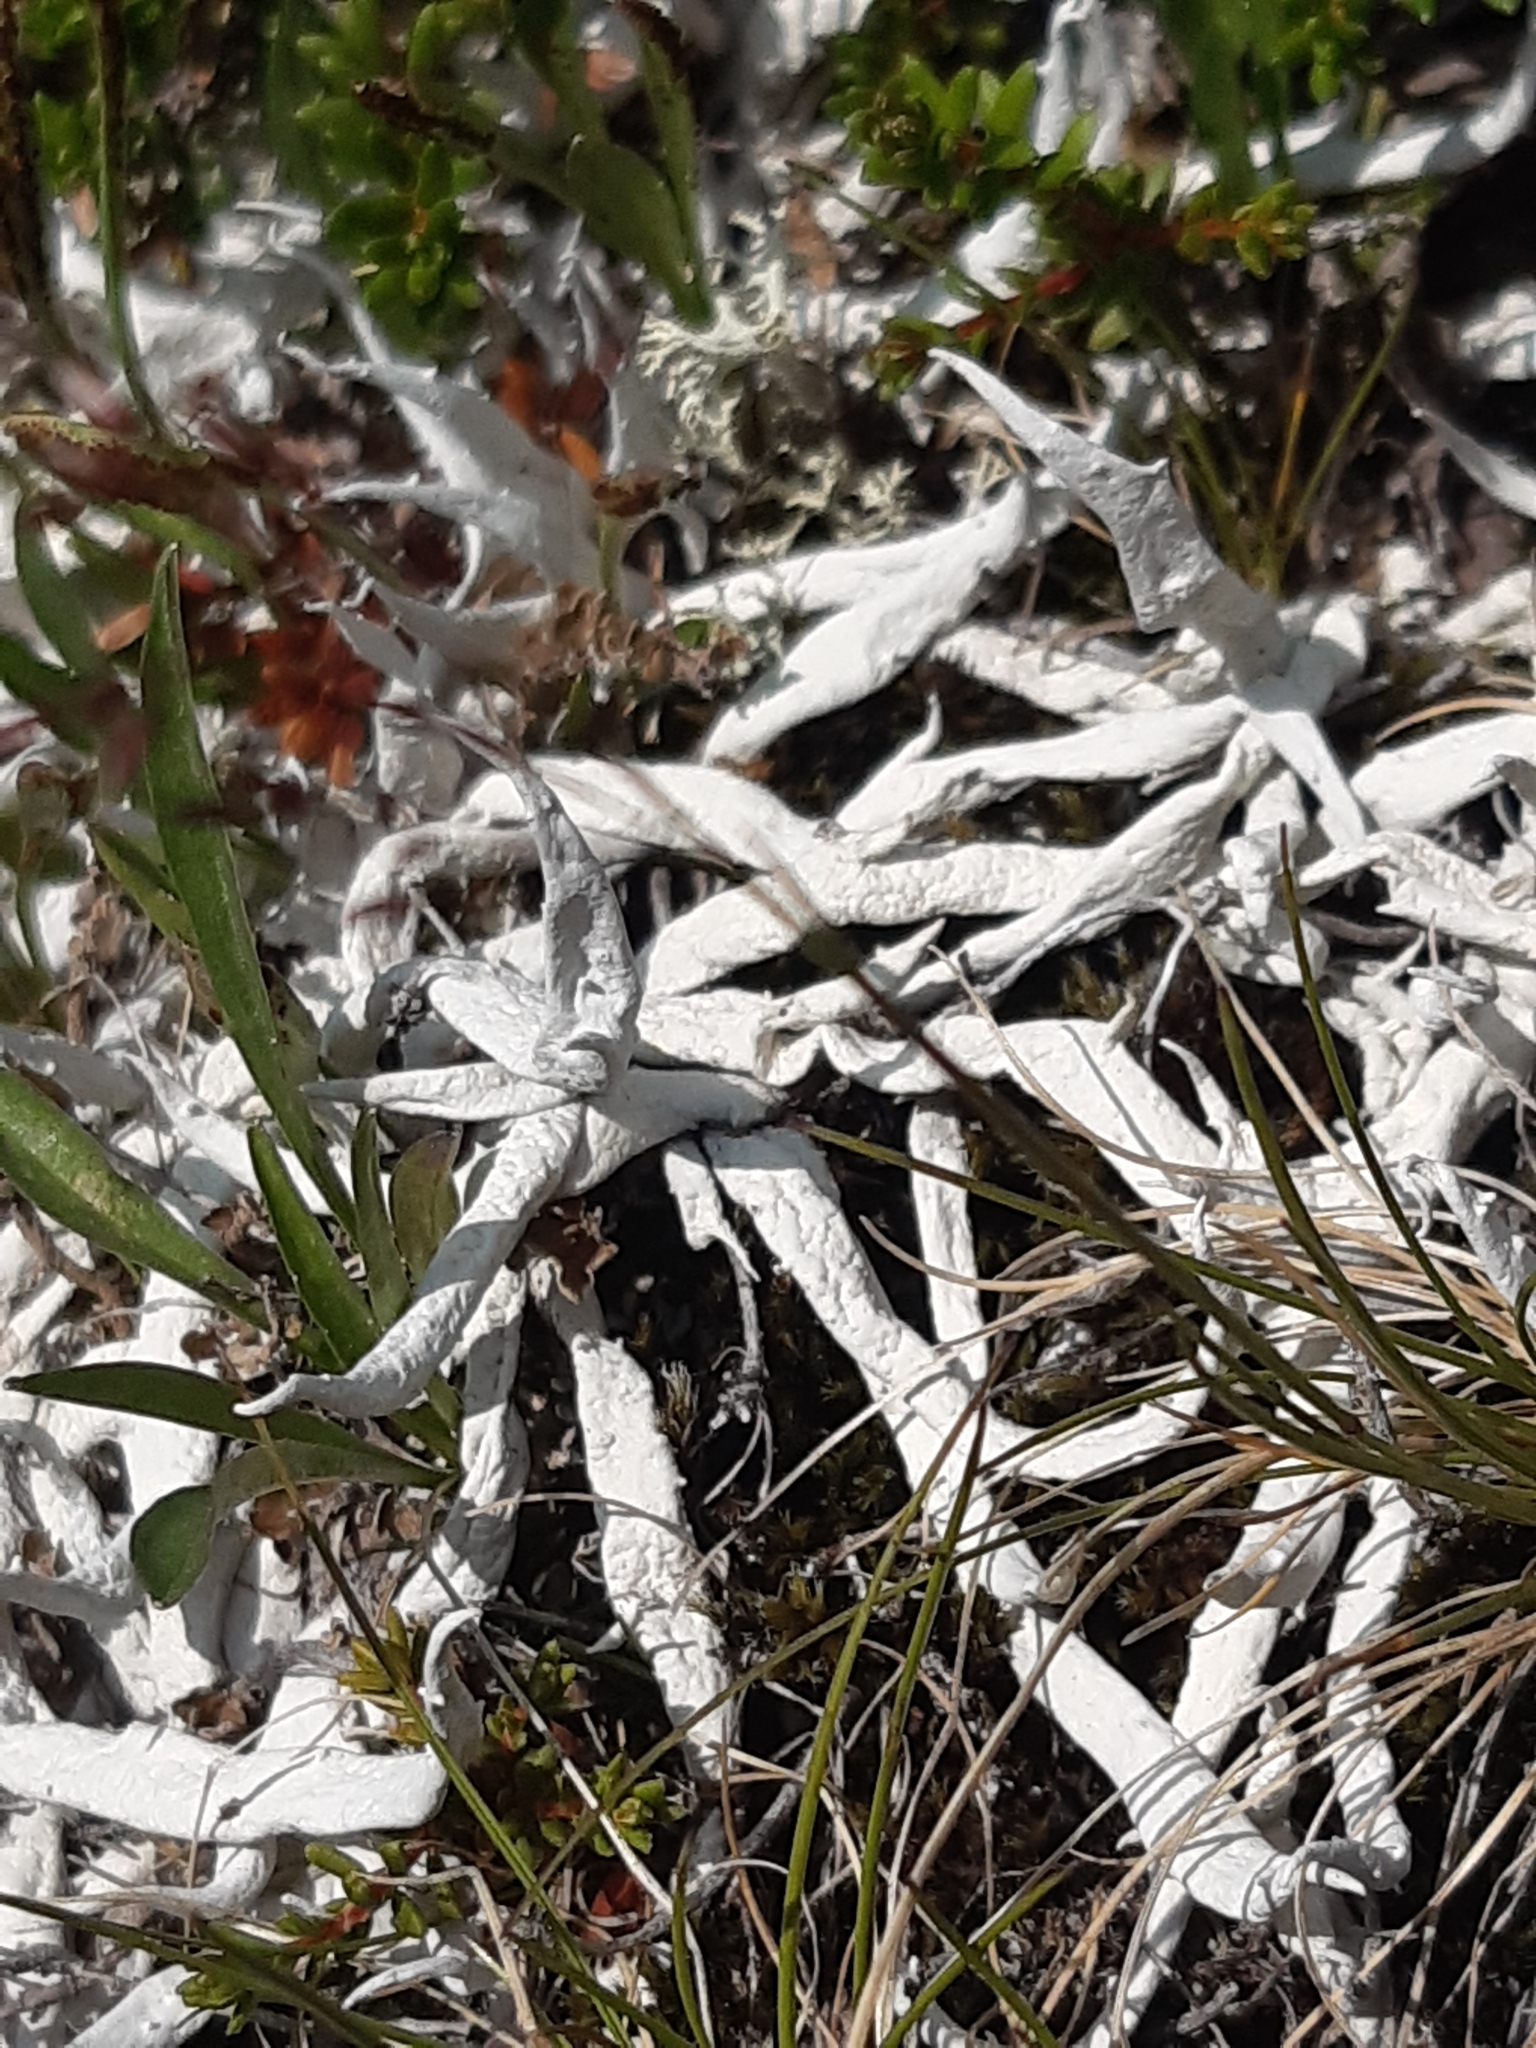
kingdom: Fungi
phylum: Ascomycota
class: Lecanoromycetes
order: Pertusariales
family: Icmadophilaceae
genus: Thamnolia
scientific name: Thamnolia vermicularis
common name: Whiteworm lichen
